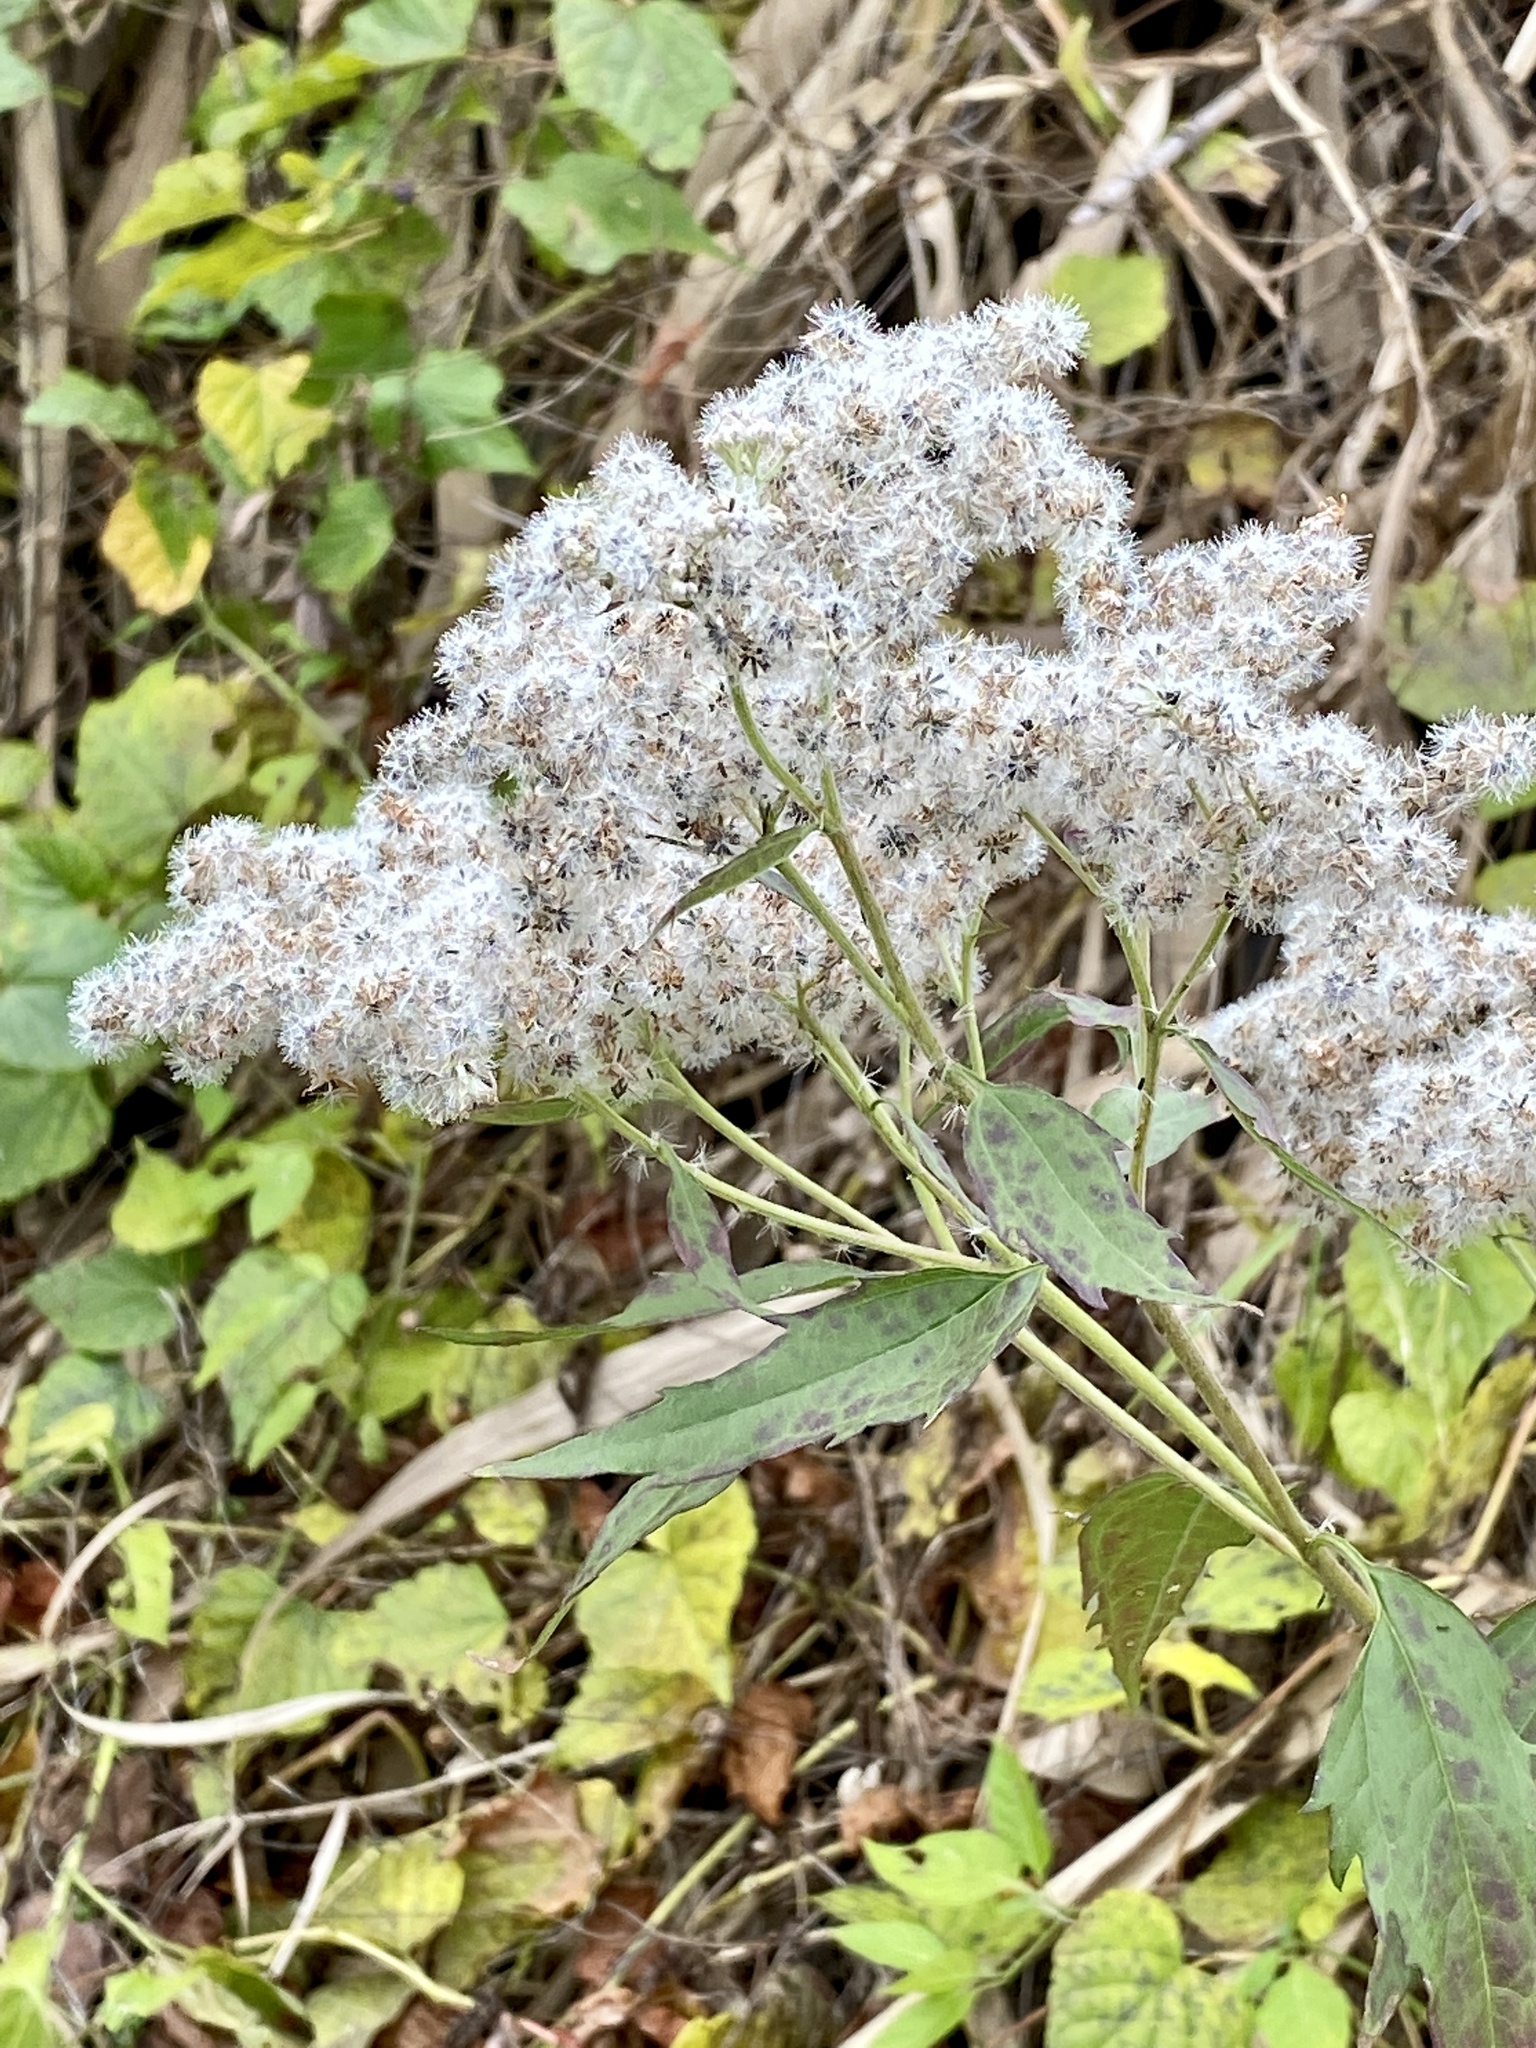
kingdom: Plantae
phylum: Tracheophyta
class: Magnoliopsida
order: Asterales
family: Asteraceae
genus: Eupatorium
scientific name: Eupatorium serotinum
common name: Late boneset
